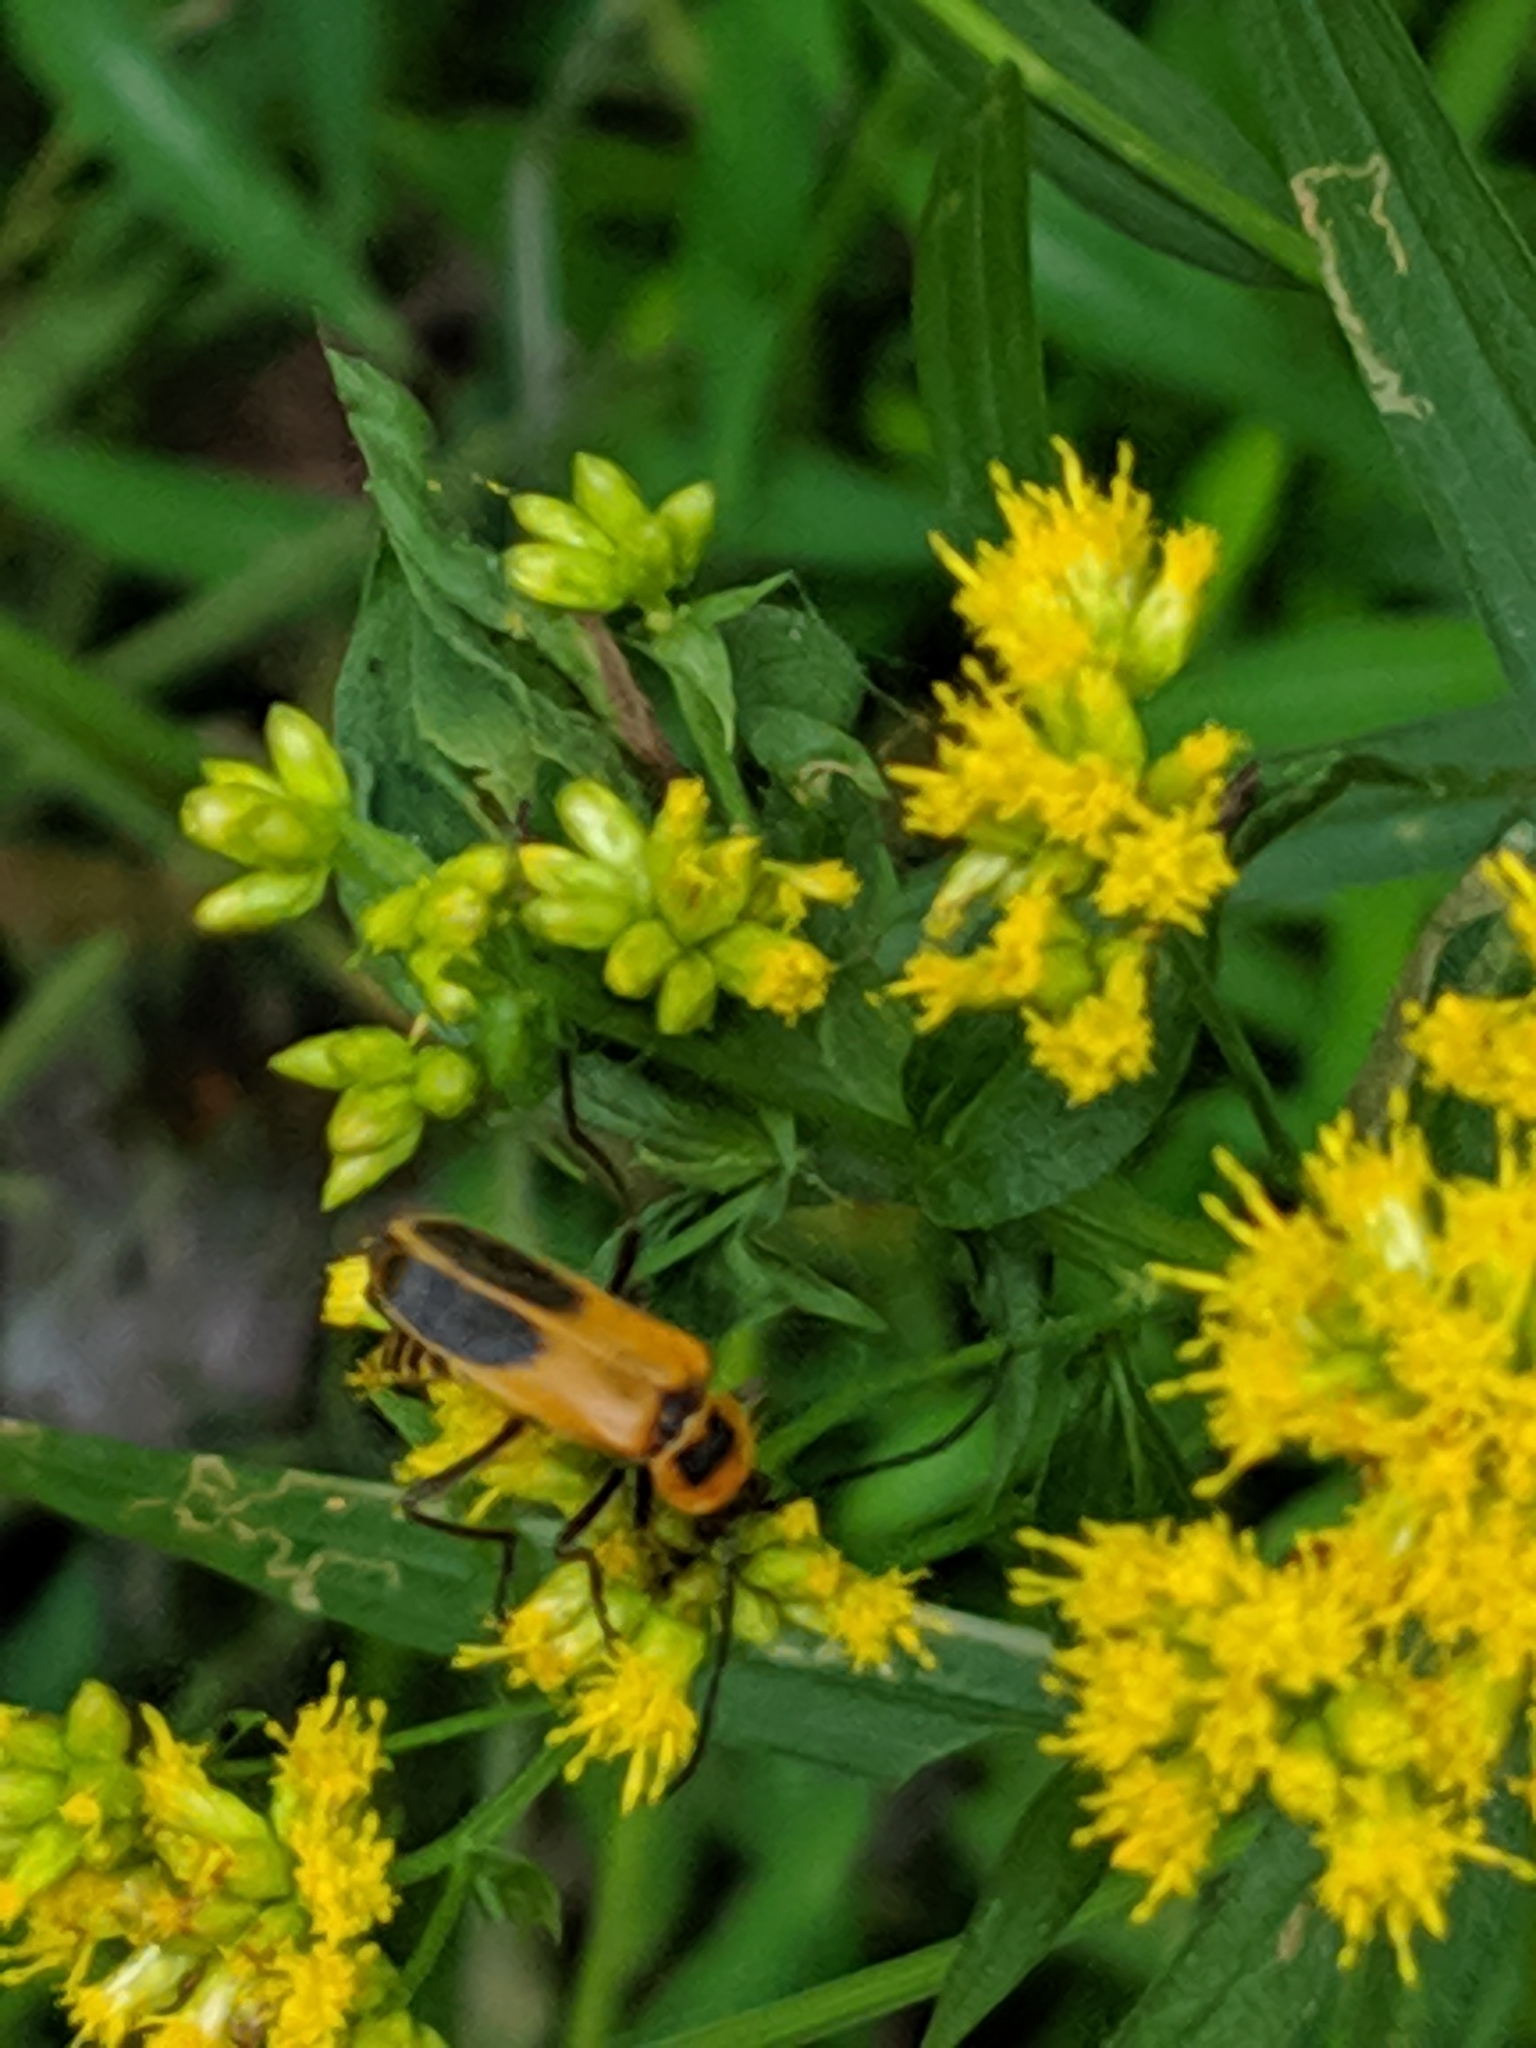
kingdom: Animalia
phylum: Arthropoda
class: Insecta
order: Coleoptera
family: Cantharidae
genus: Chauliognathus
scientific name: Chauliognathus pensylvanicus
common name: Goldenrod soldier beetle
